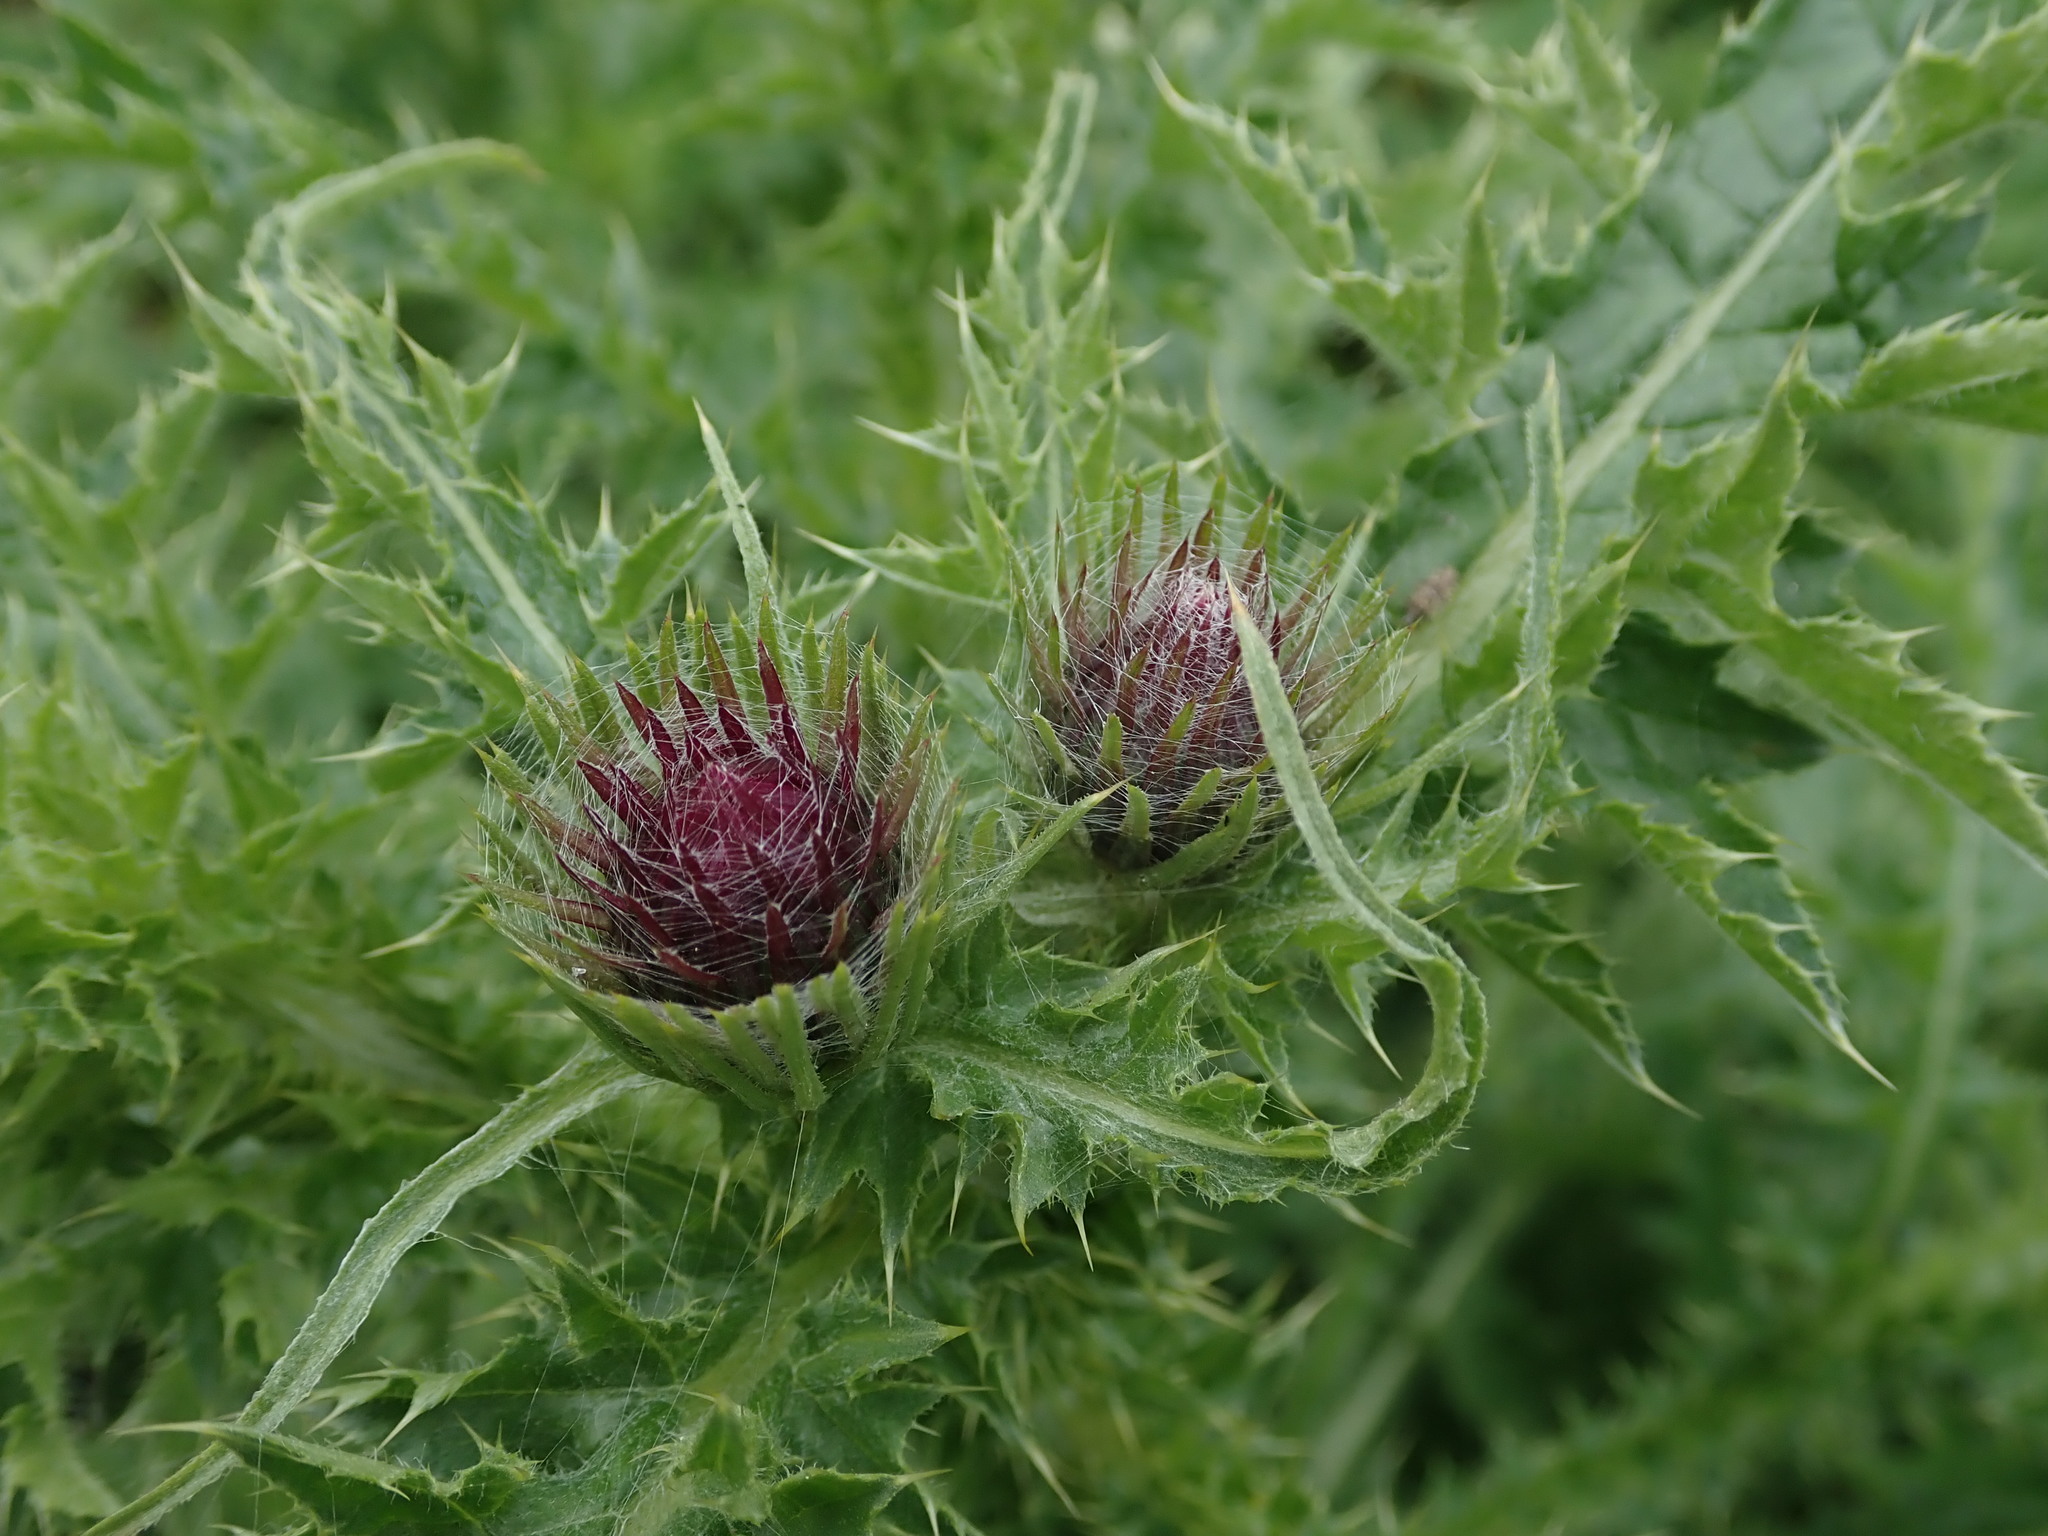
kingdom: Plantae
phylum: Tracheophyta
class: Magnoliopsida
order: Asterales
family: Asteraceae
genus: Carduus
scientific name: Carduus crispus
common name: Welted thistle
